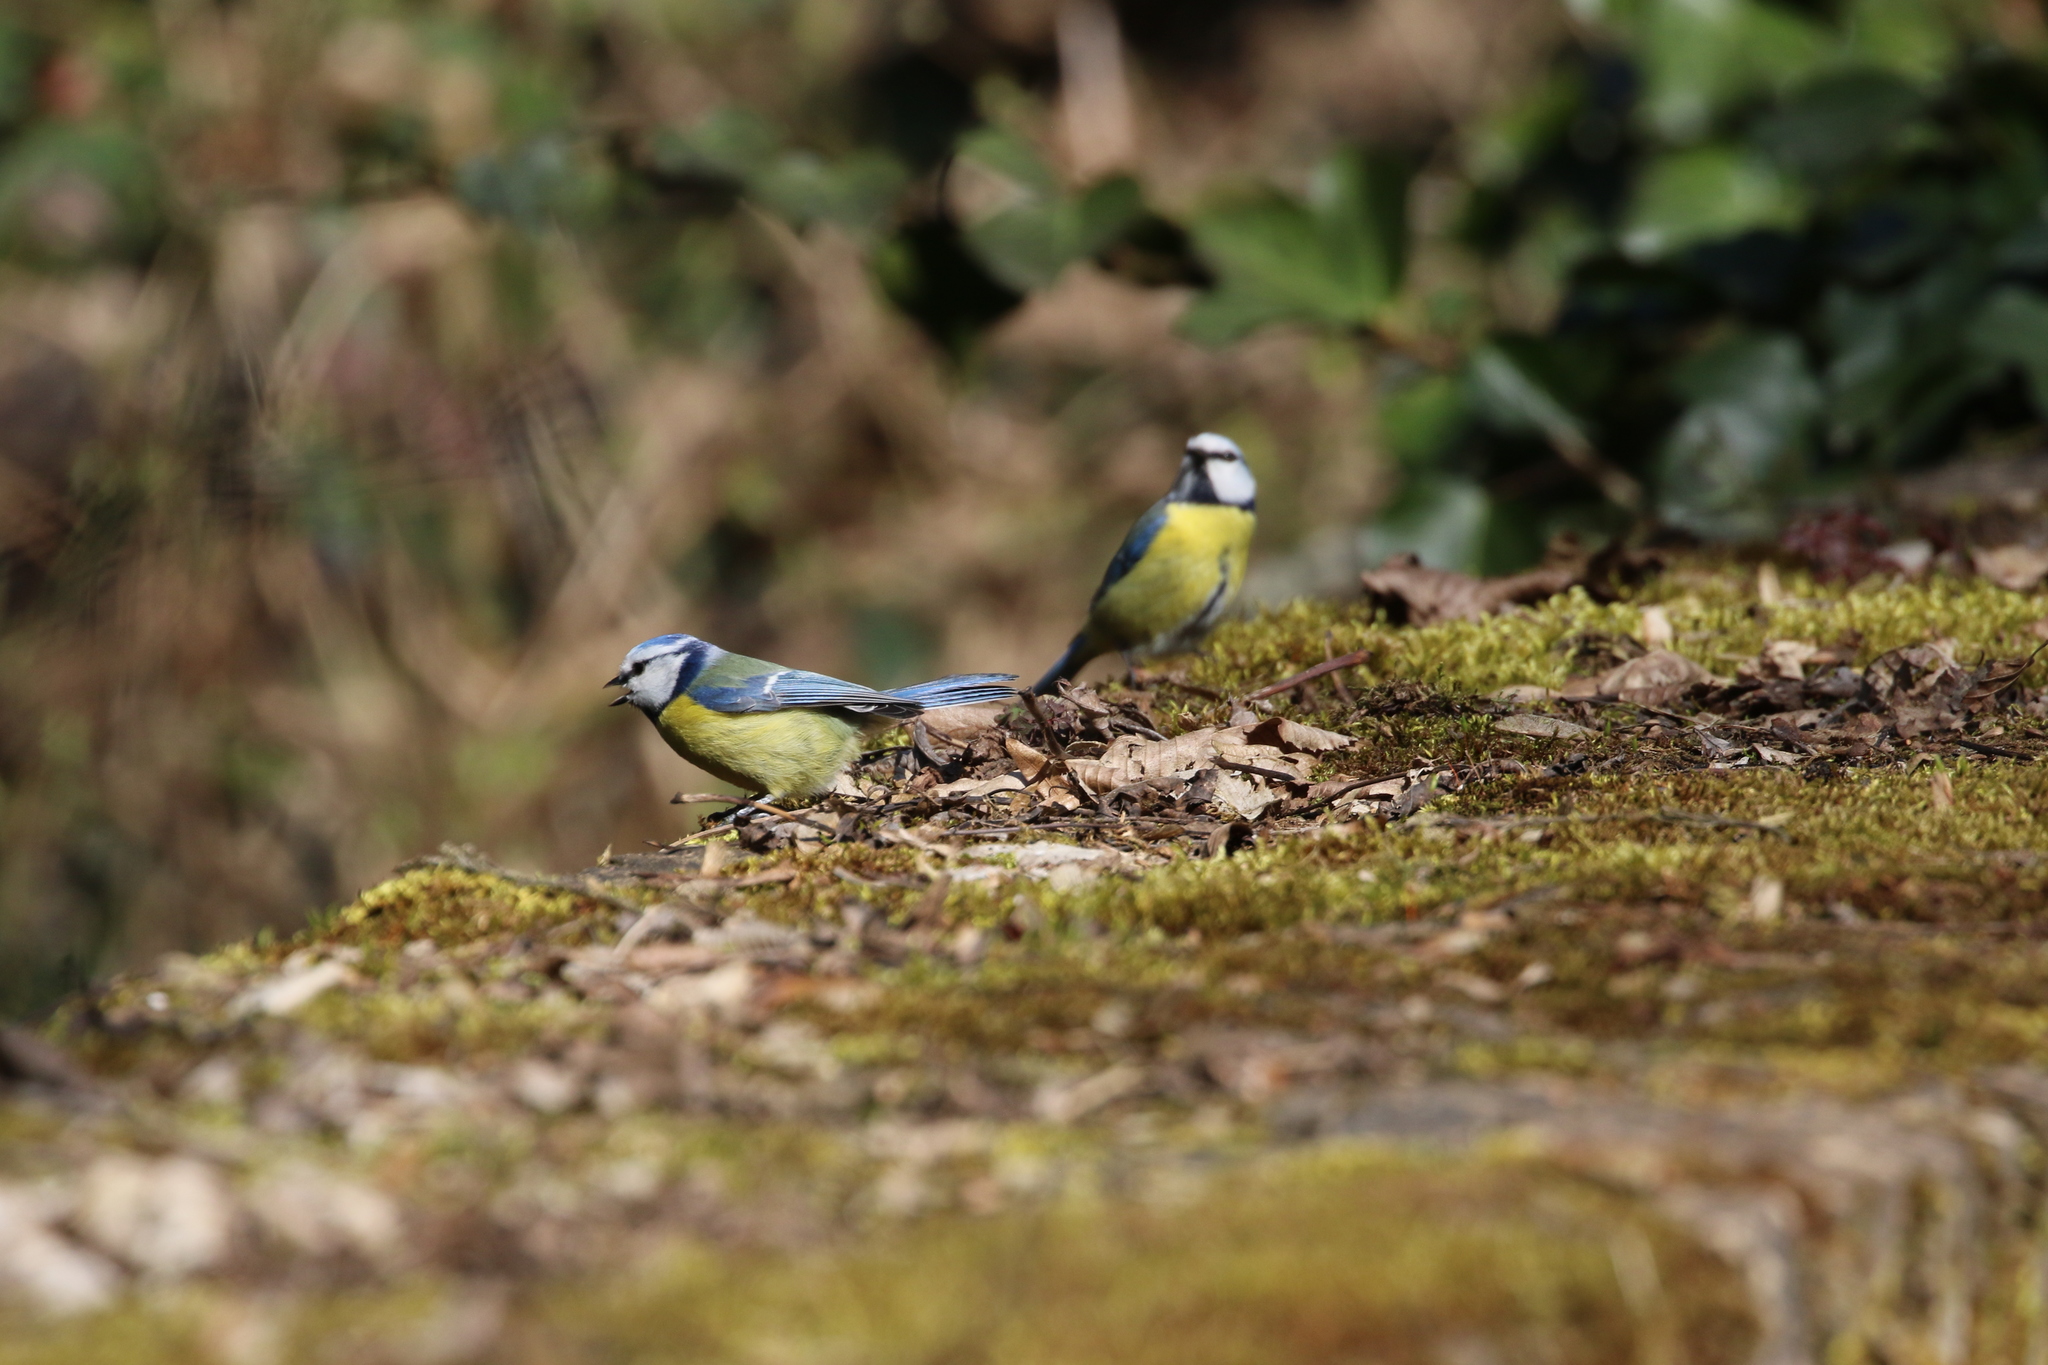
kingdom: Animalia
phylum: Chordata
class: Aves
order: Passeriformes
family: Paridae
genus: Cyanistes
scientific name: Cyanistes caeruleus
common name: Eurasian blue tit
